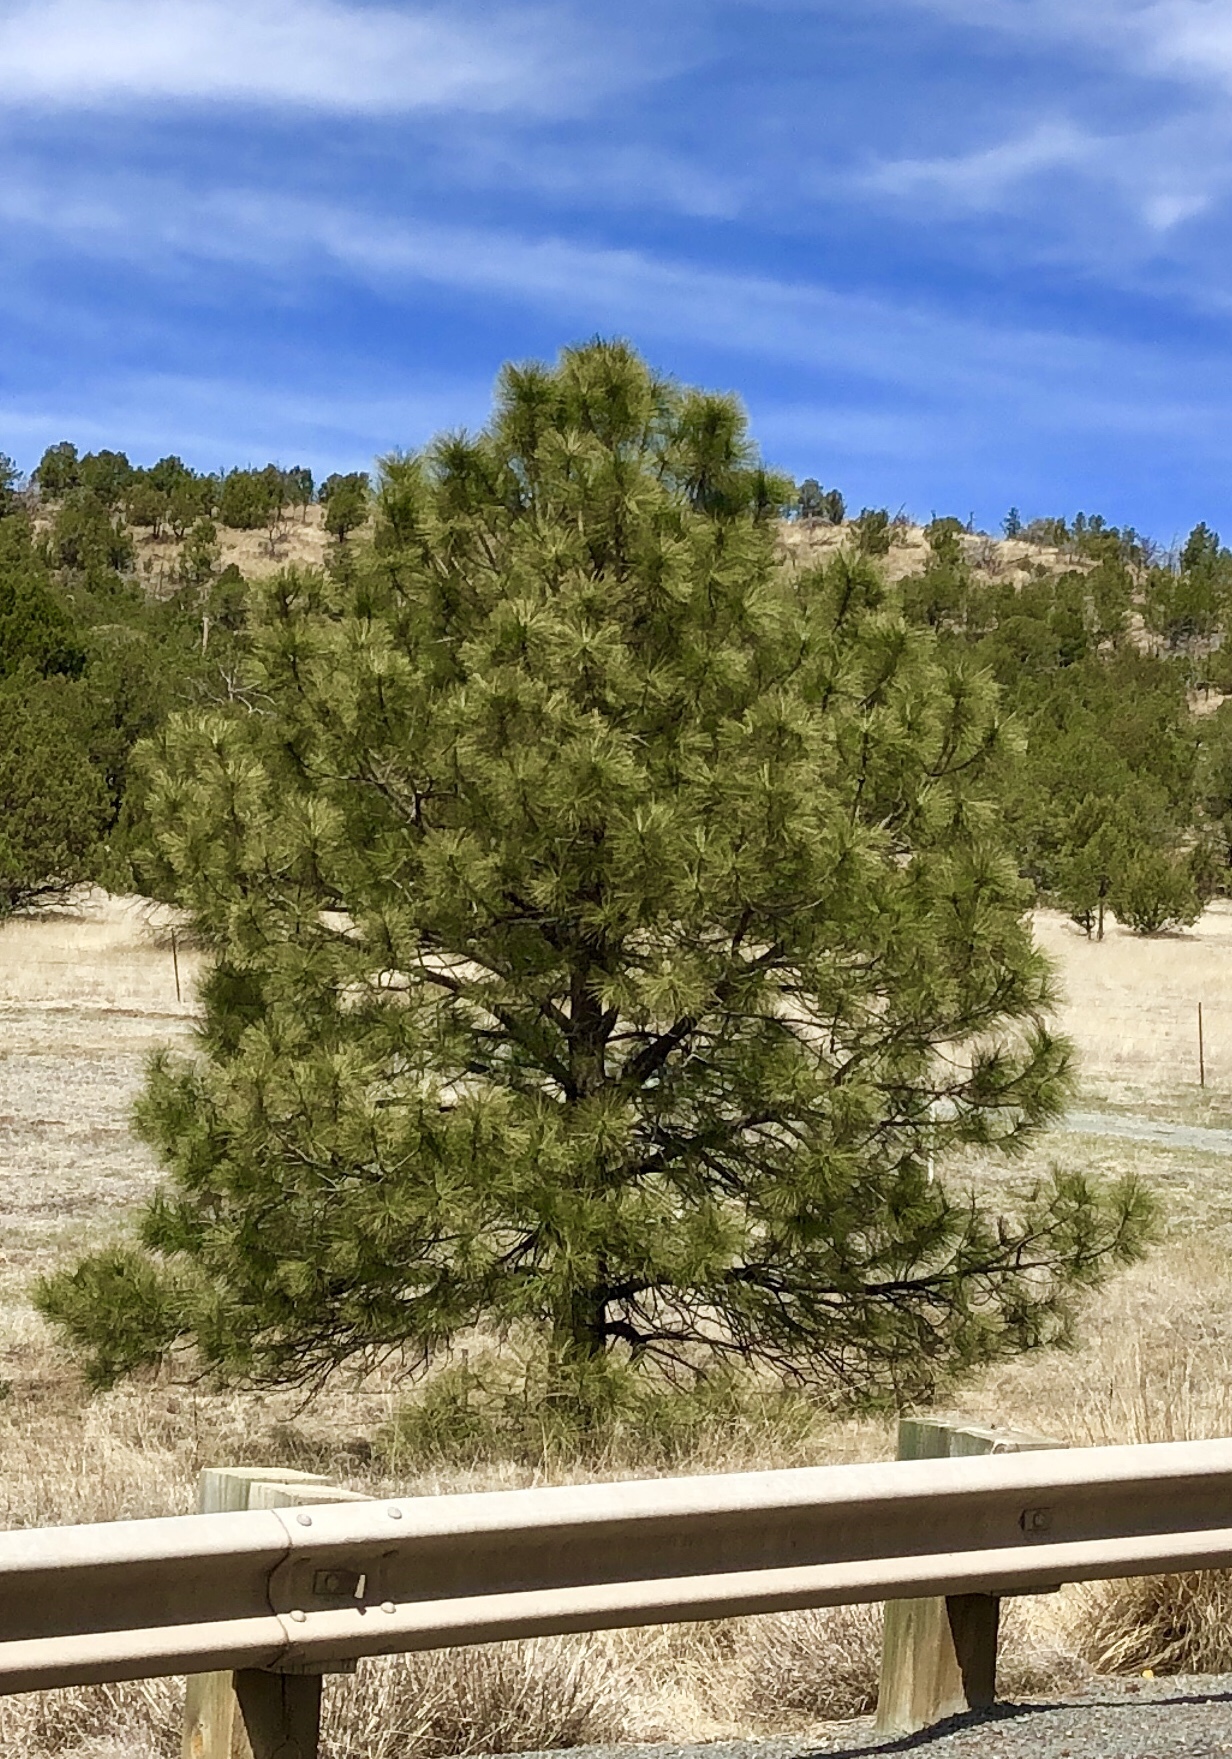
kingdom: Plantae
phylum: Tracheophyta
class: Pinopsida
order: Pinales
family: Pinaceae
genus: Pinus
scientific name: Pinus ponderosa
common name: Western yellow-pine
